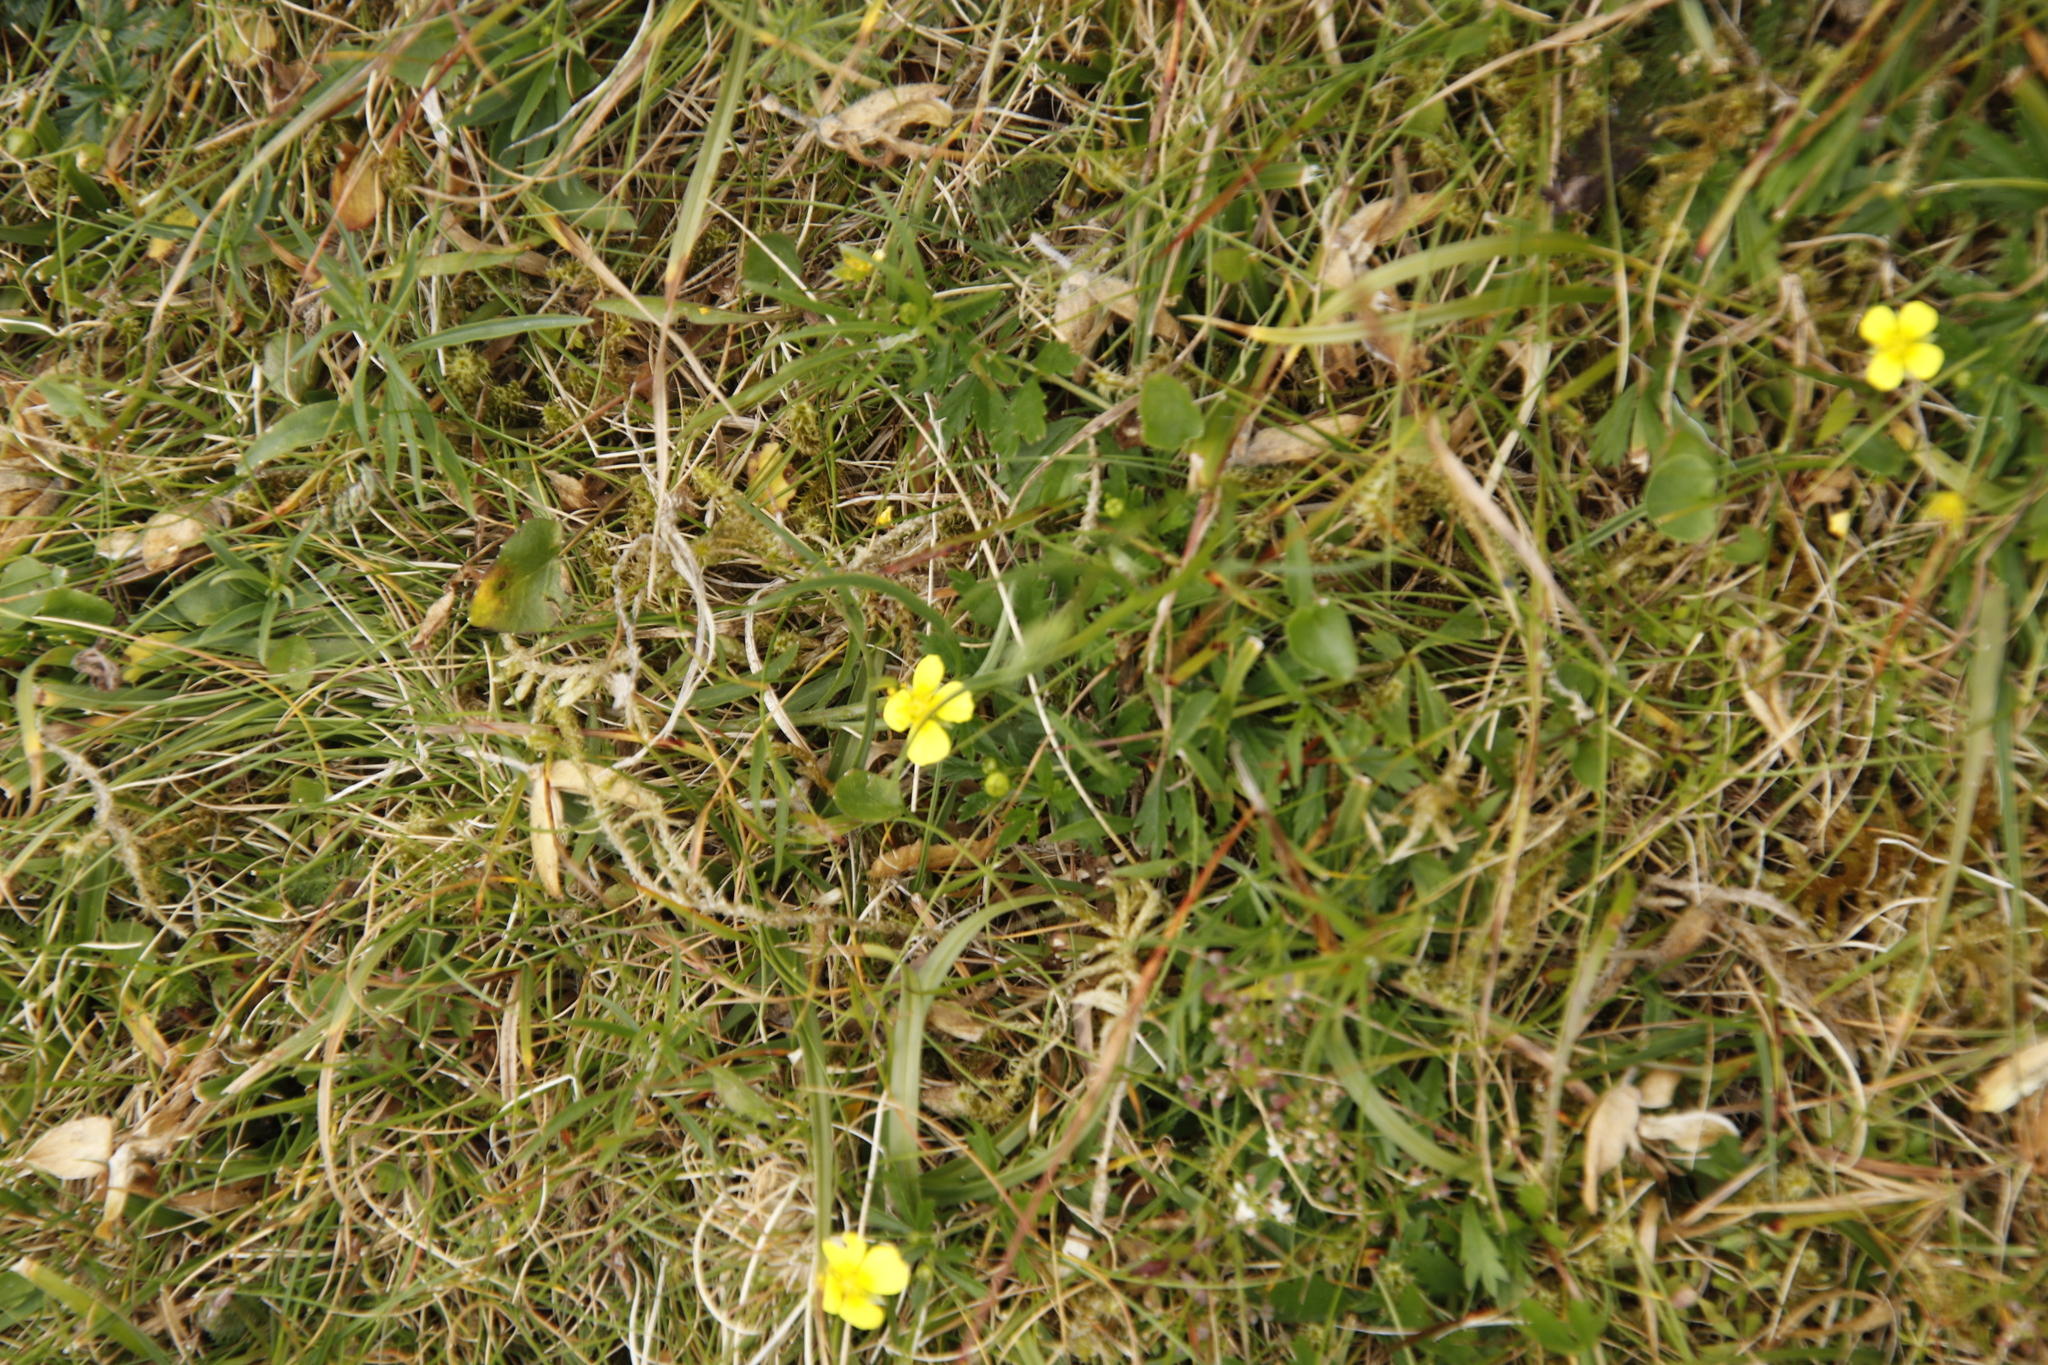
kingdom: Plantae
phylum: Tracheophyta
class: Magnoliopsida
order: Rosales
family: Rosaceae
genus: Potentilla
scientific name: Potentilla erecta
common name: Tormentil
